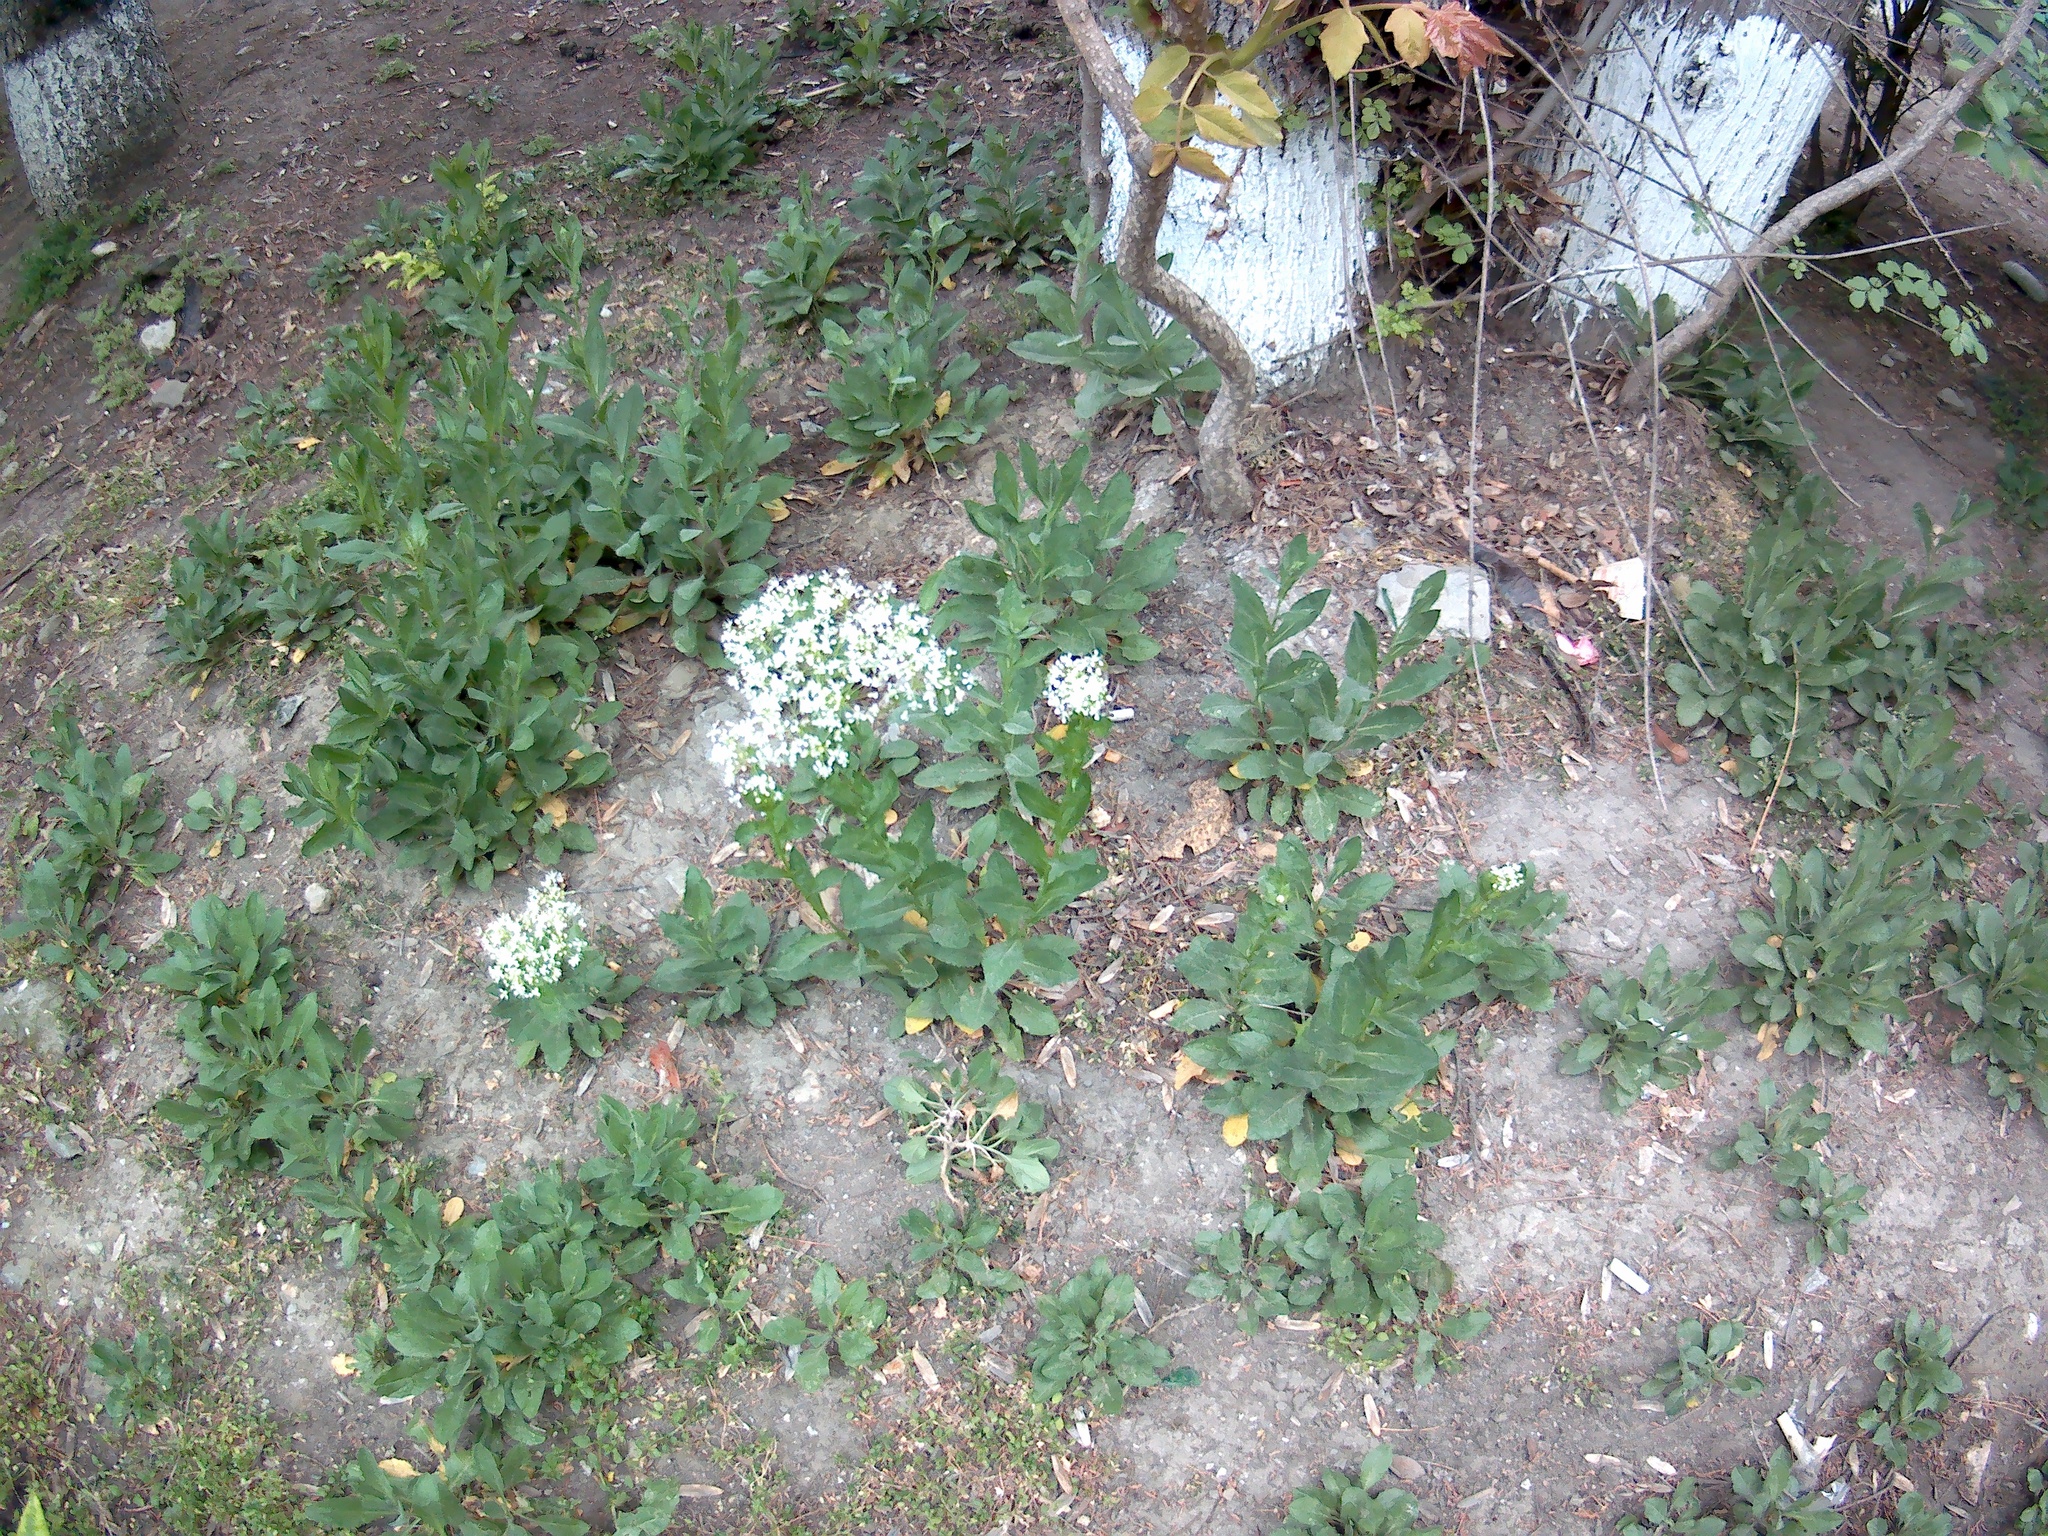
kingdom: Plantae
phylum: Tracheophyta
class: Magnoliopsida
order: Brassicales
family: Brassicaceae
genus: Lepidium
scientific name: Lepidium draba
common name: Hoary cress
